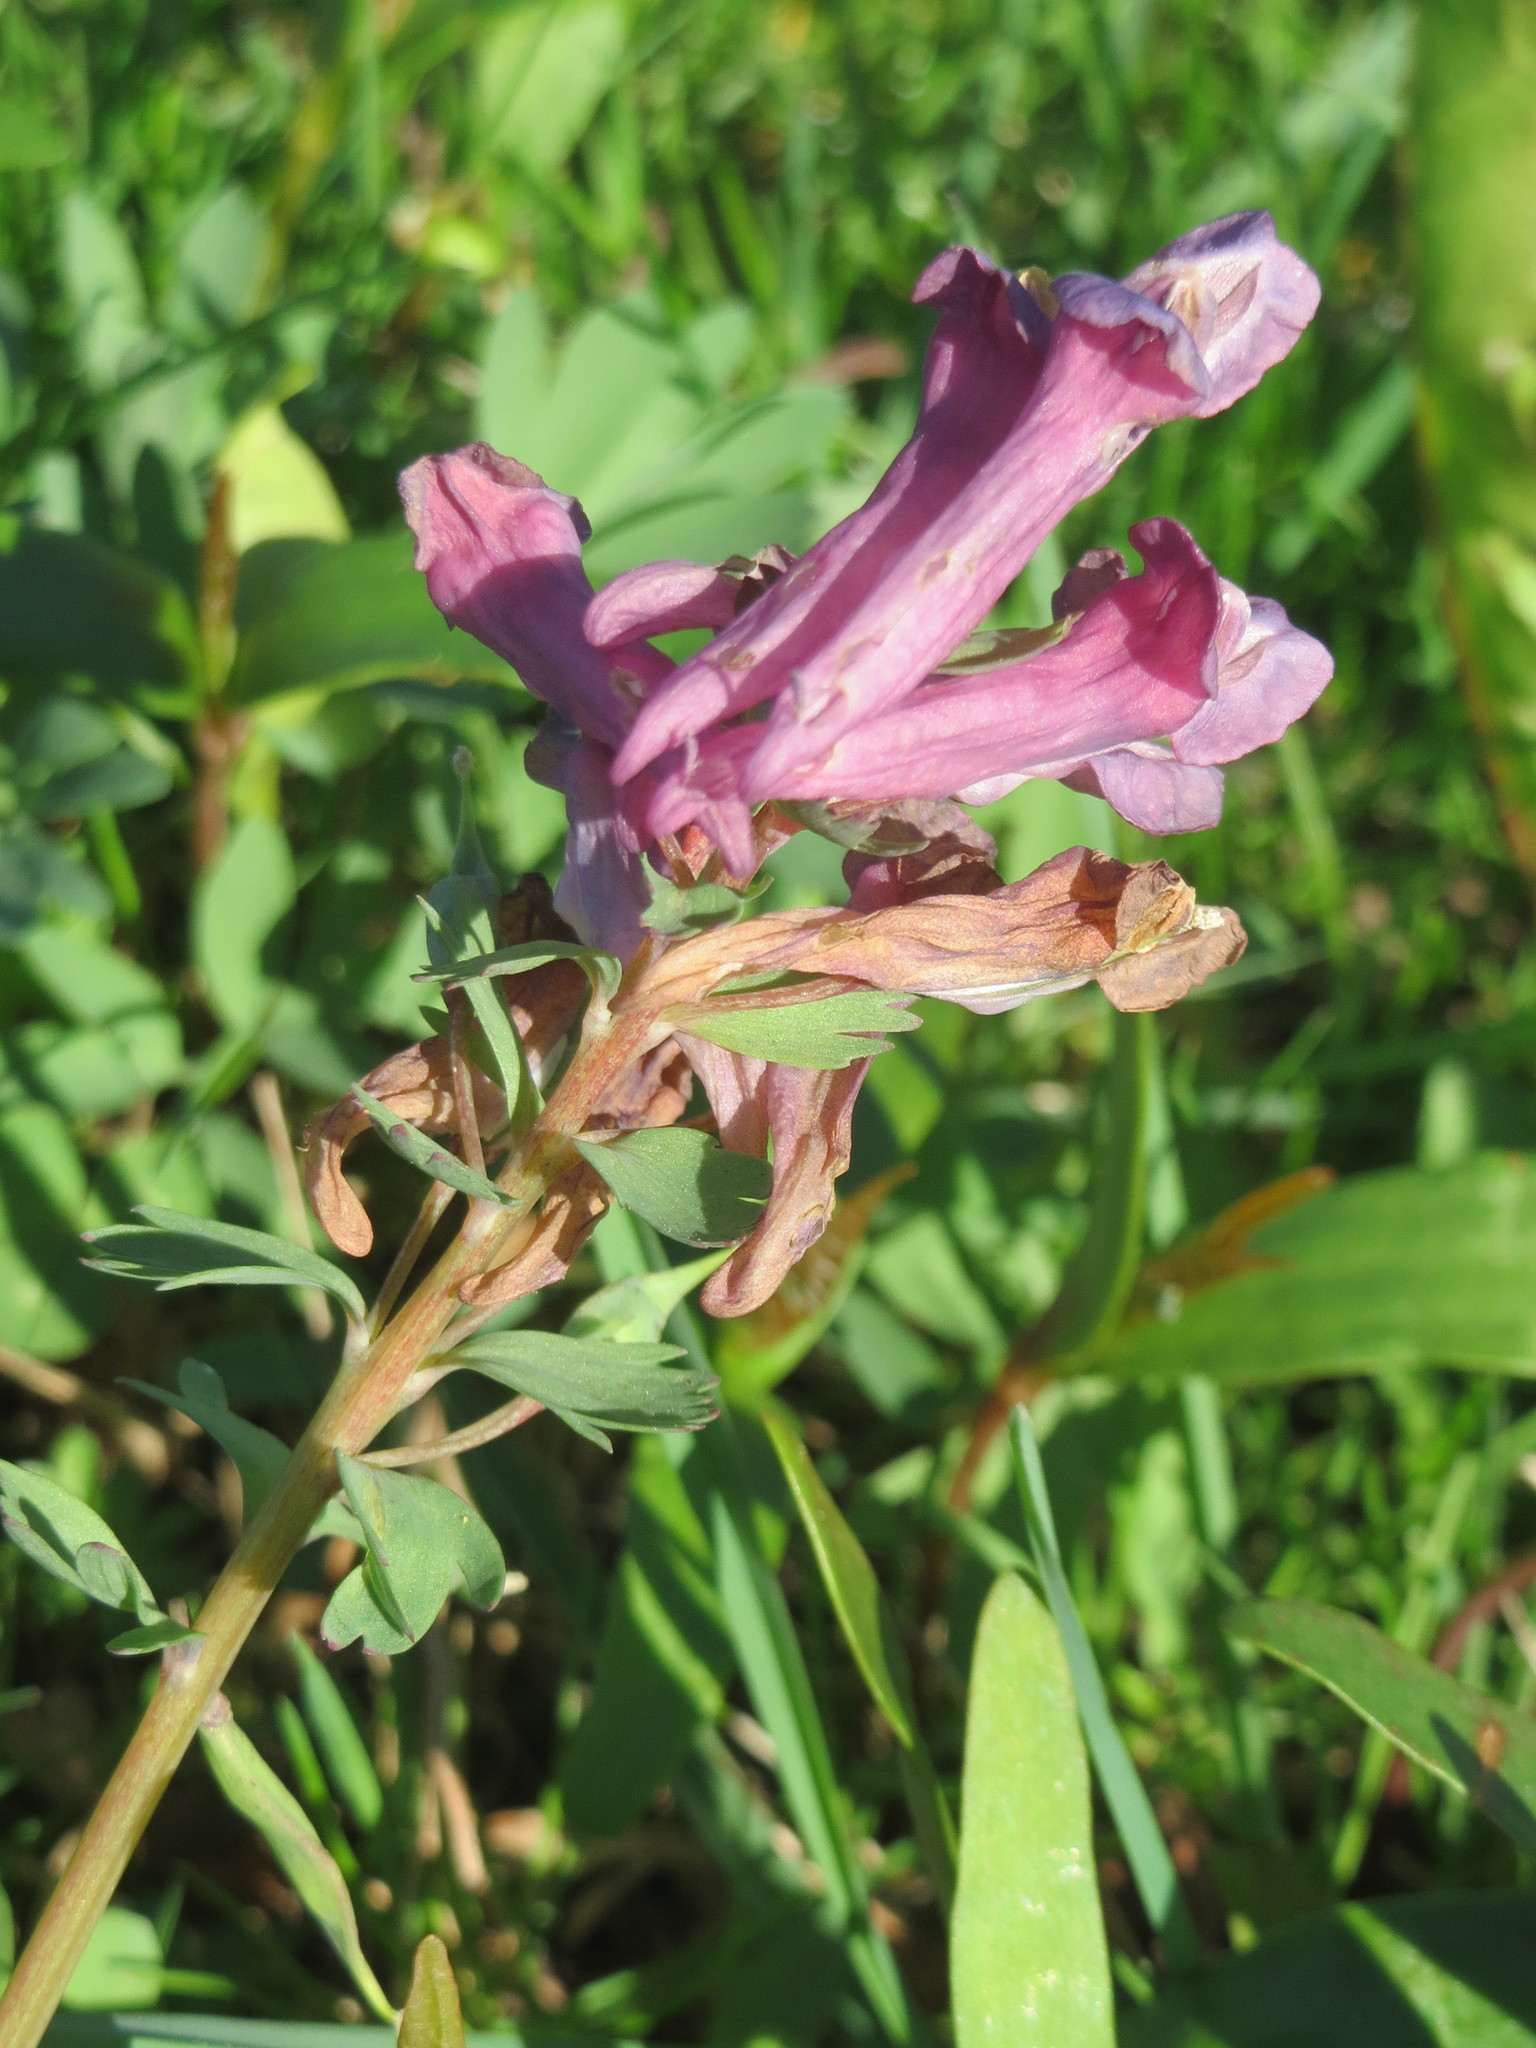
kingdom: Plantae
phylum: Tracheophyta
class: Magnoliopsida
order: Ranunculales
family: Papaveraceae
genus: Corydalis
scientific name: Corydalis solida
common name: Bird-in-a-bush
